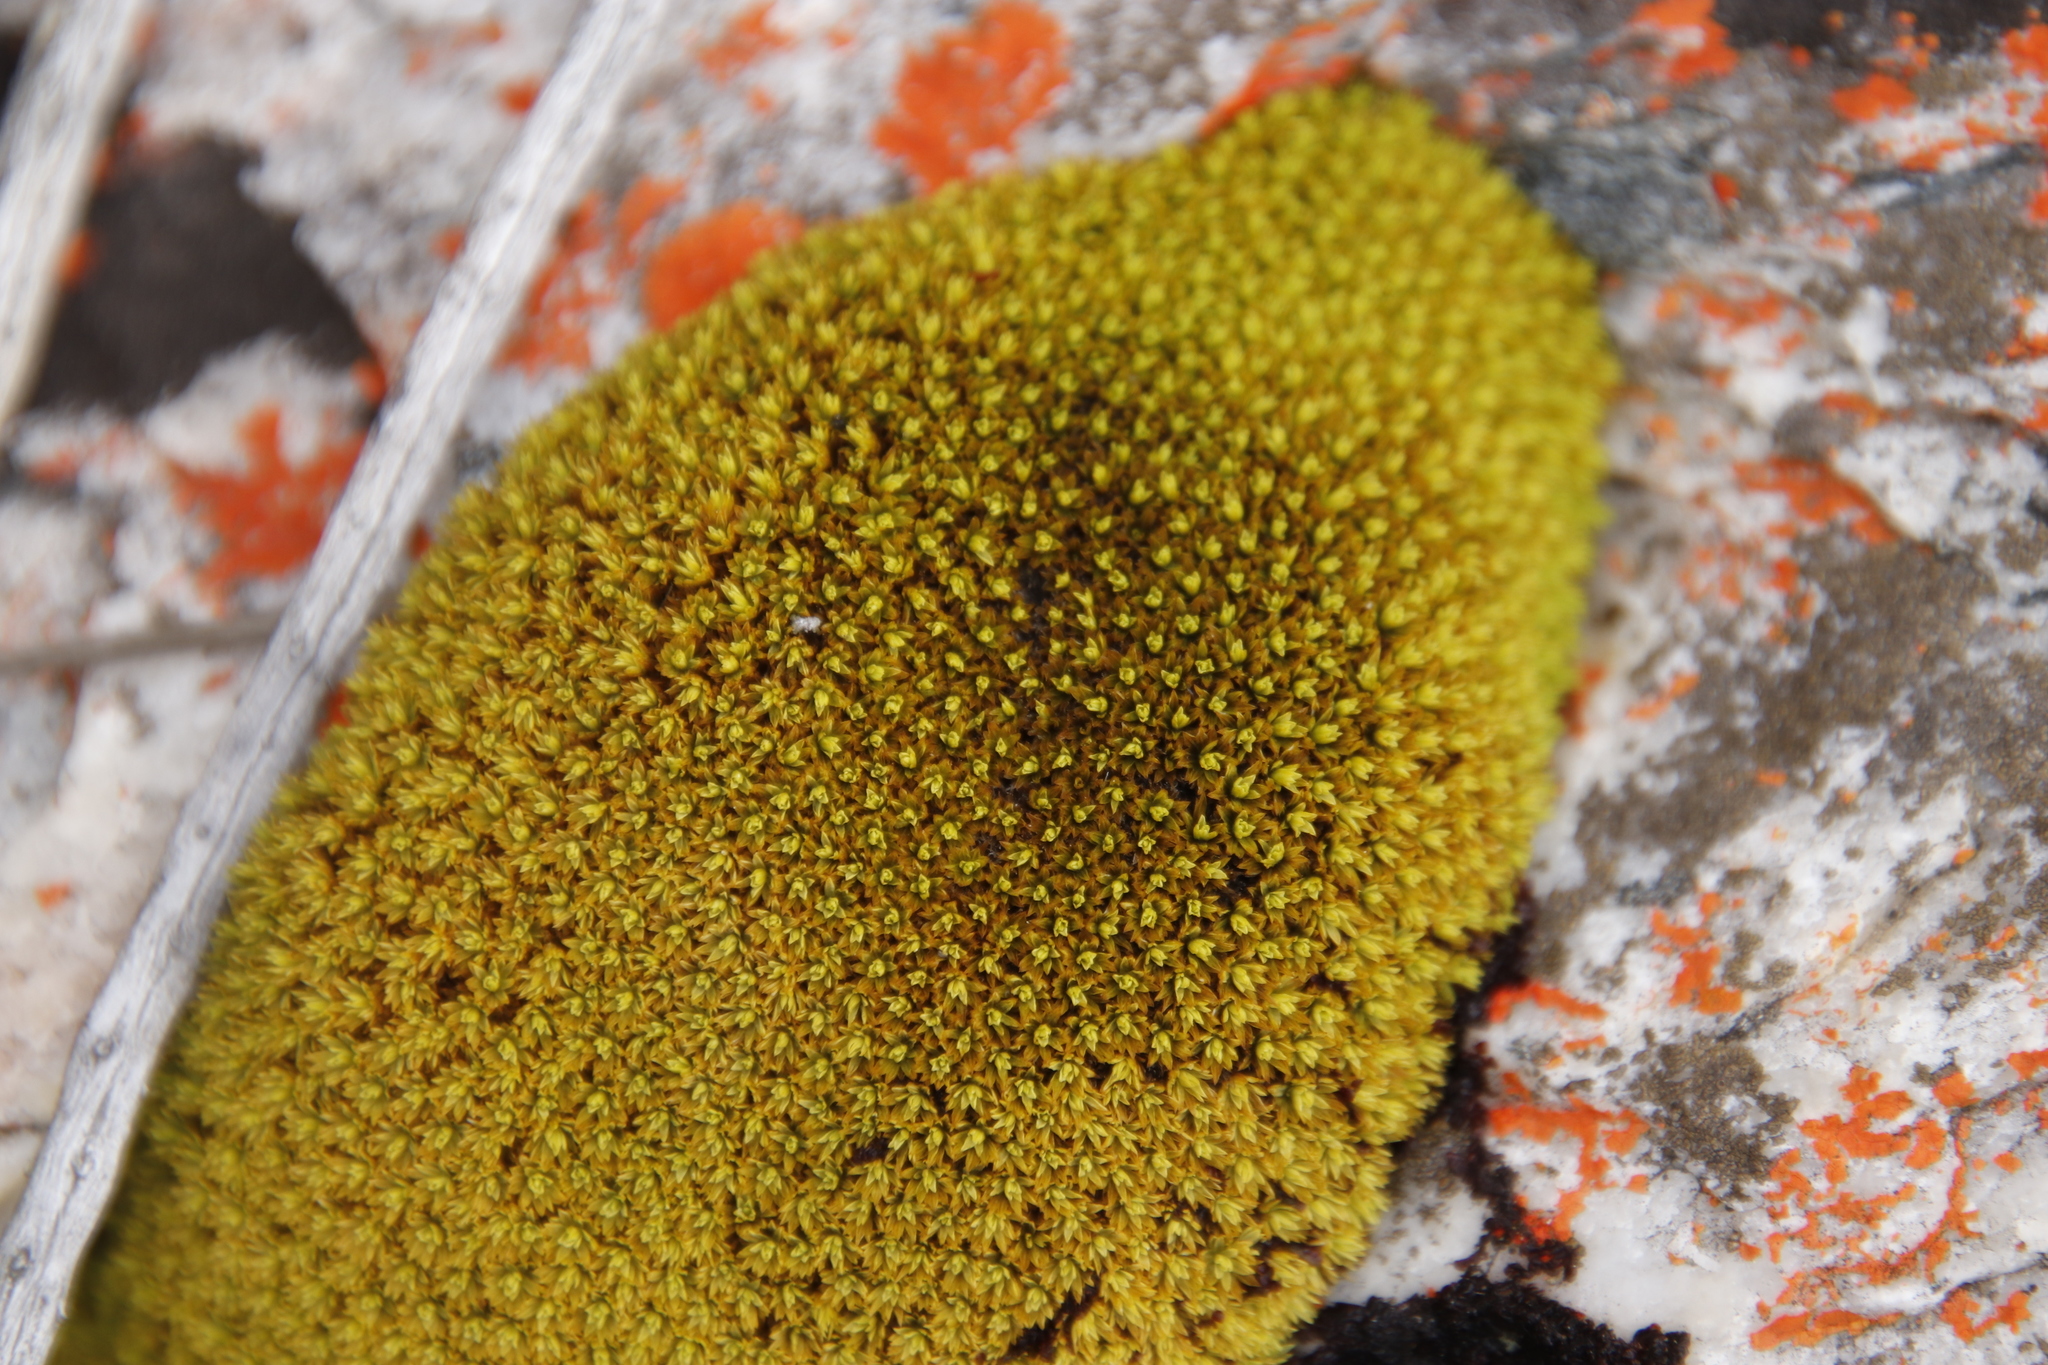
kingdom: Plantae
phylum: Bryophyta
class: Bryopsida
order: Pottiales
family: Pottiaceae
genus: Trichostomum
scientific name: Trichostomum brachydontium
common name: Variable crisp-moss
